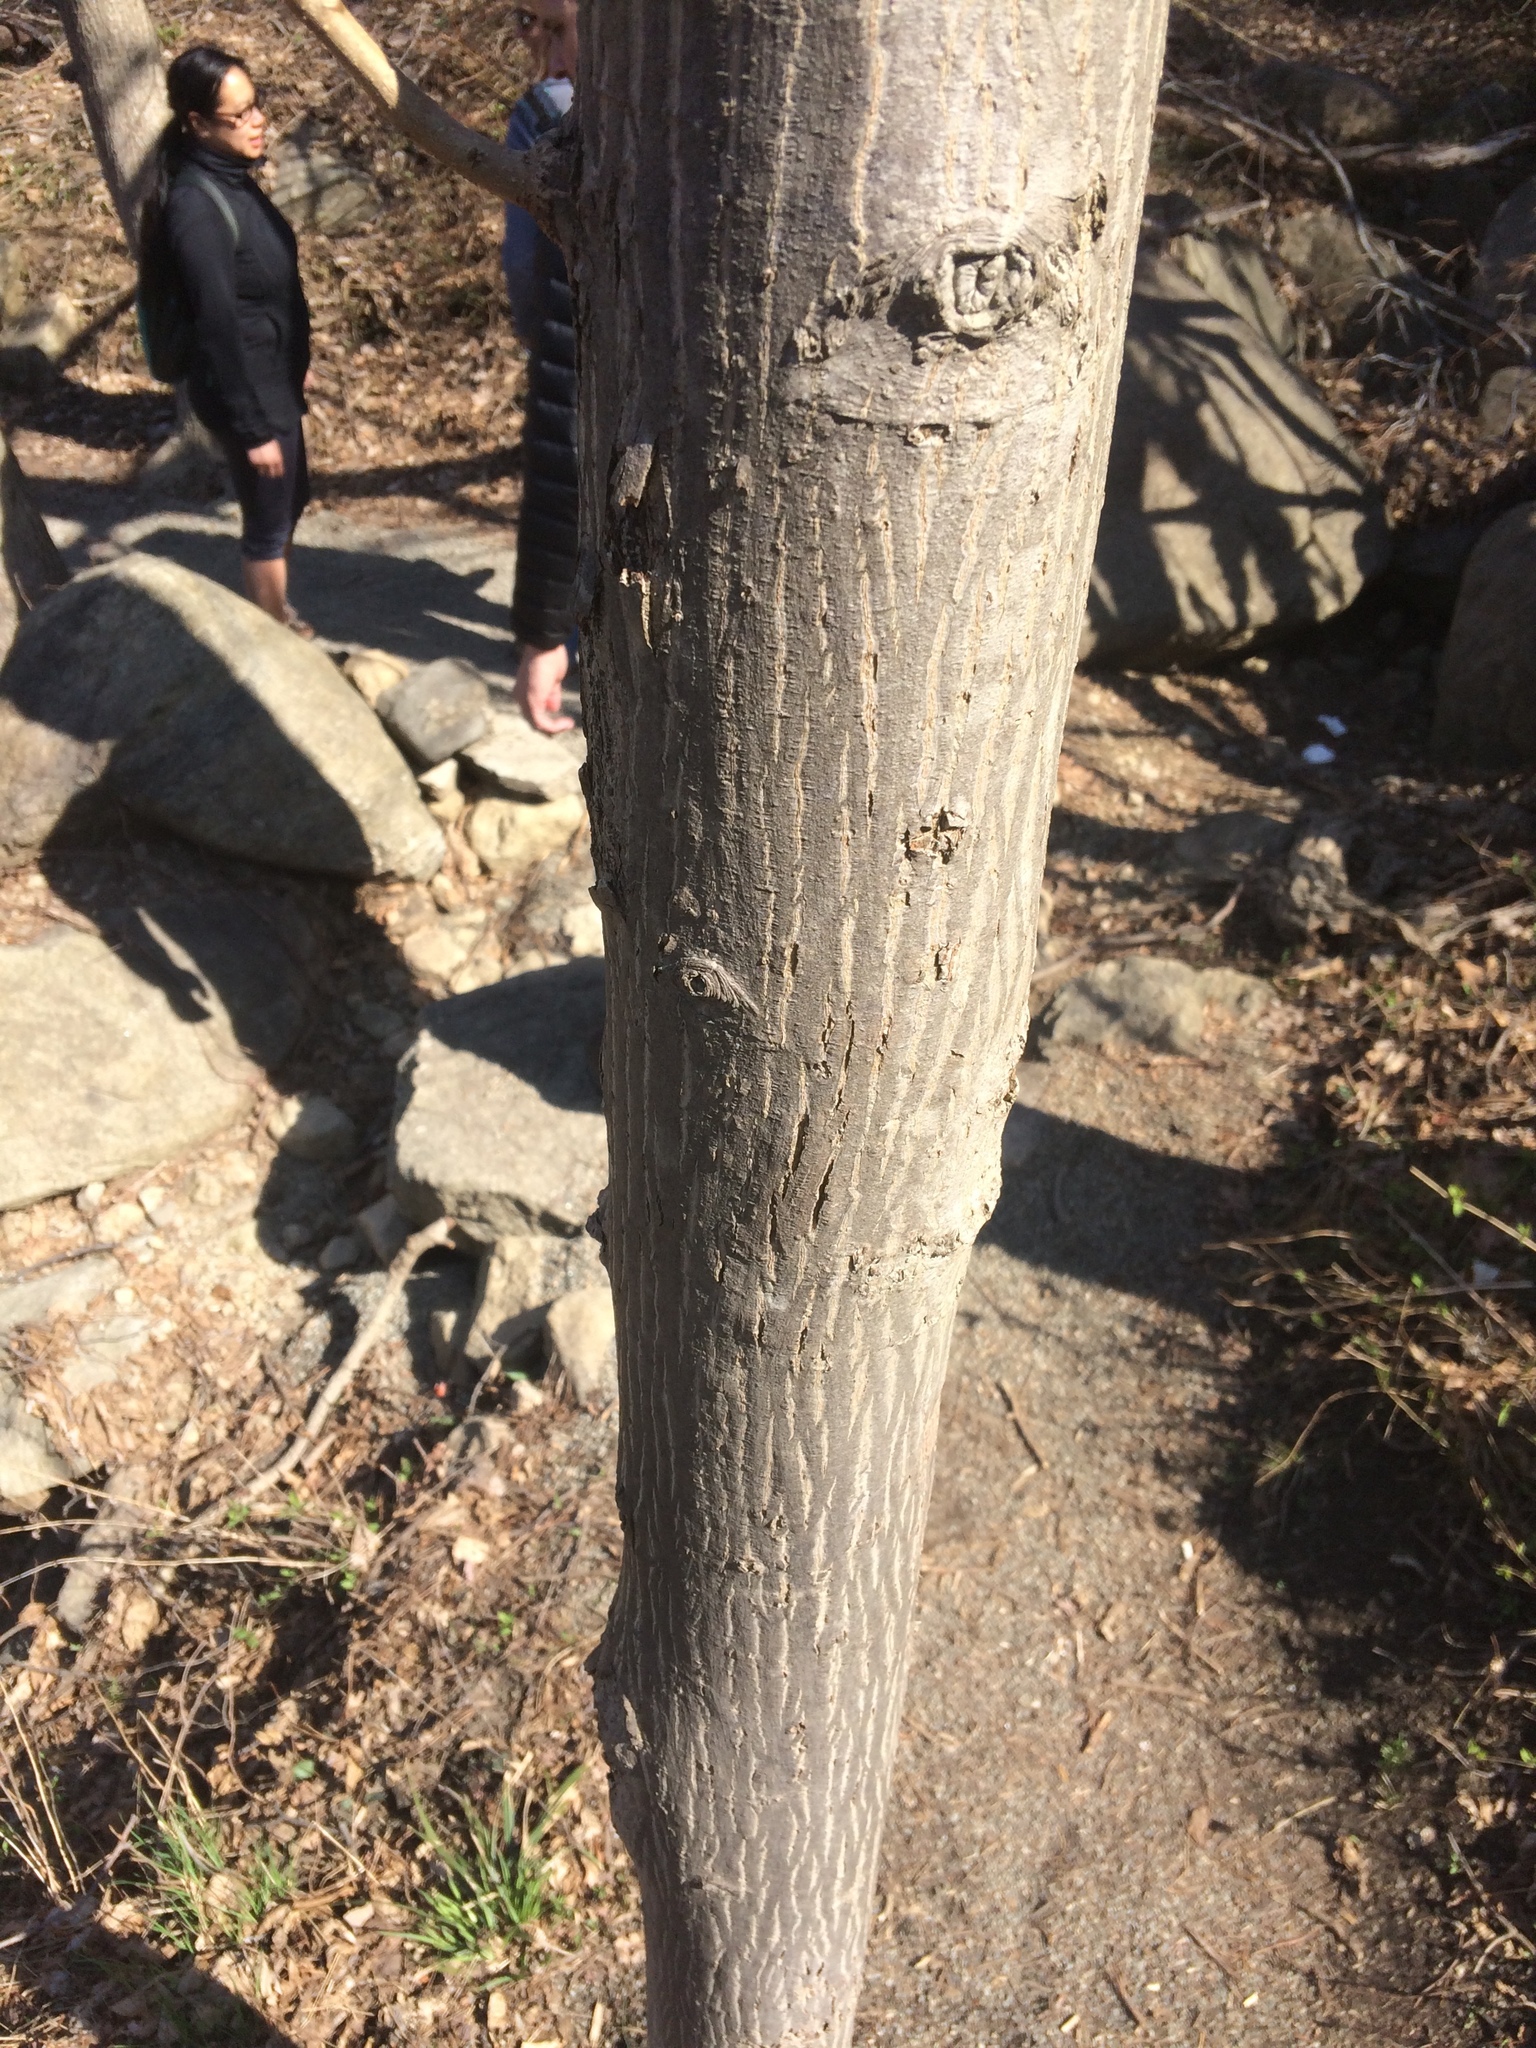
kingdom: Plantae
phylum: Tracheophyta
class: Magnoliopsida
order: Fagales
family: Juglandaceae
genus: Carya
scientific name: Carya cordiformis
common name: Bitternut hickory
